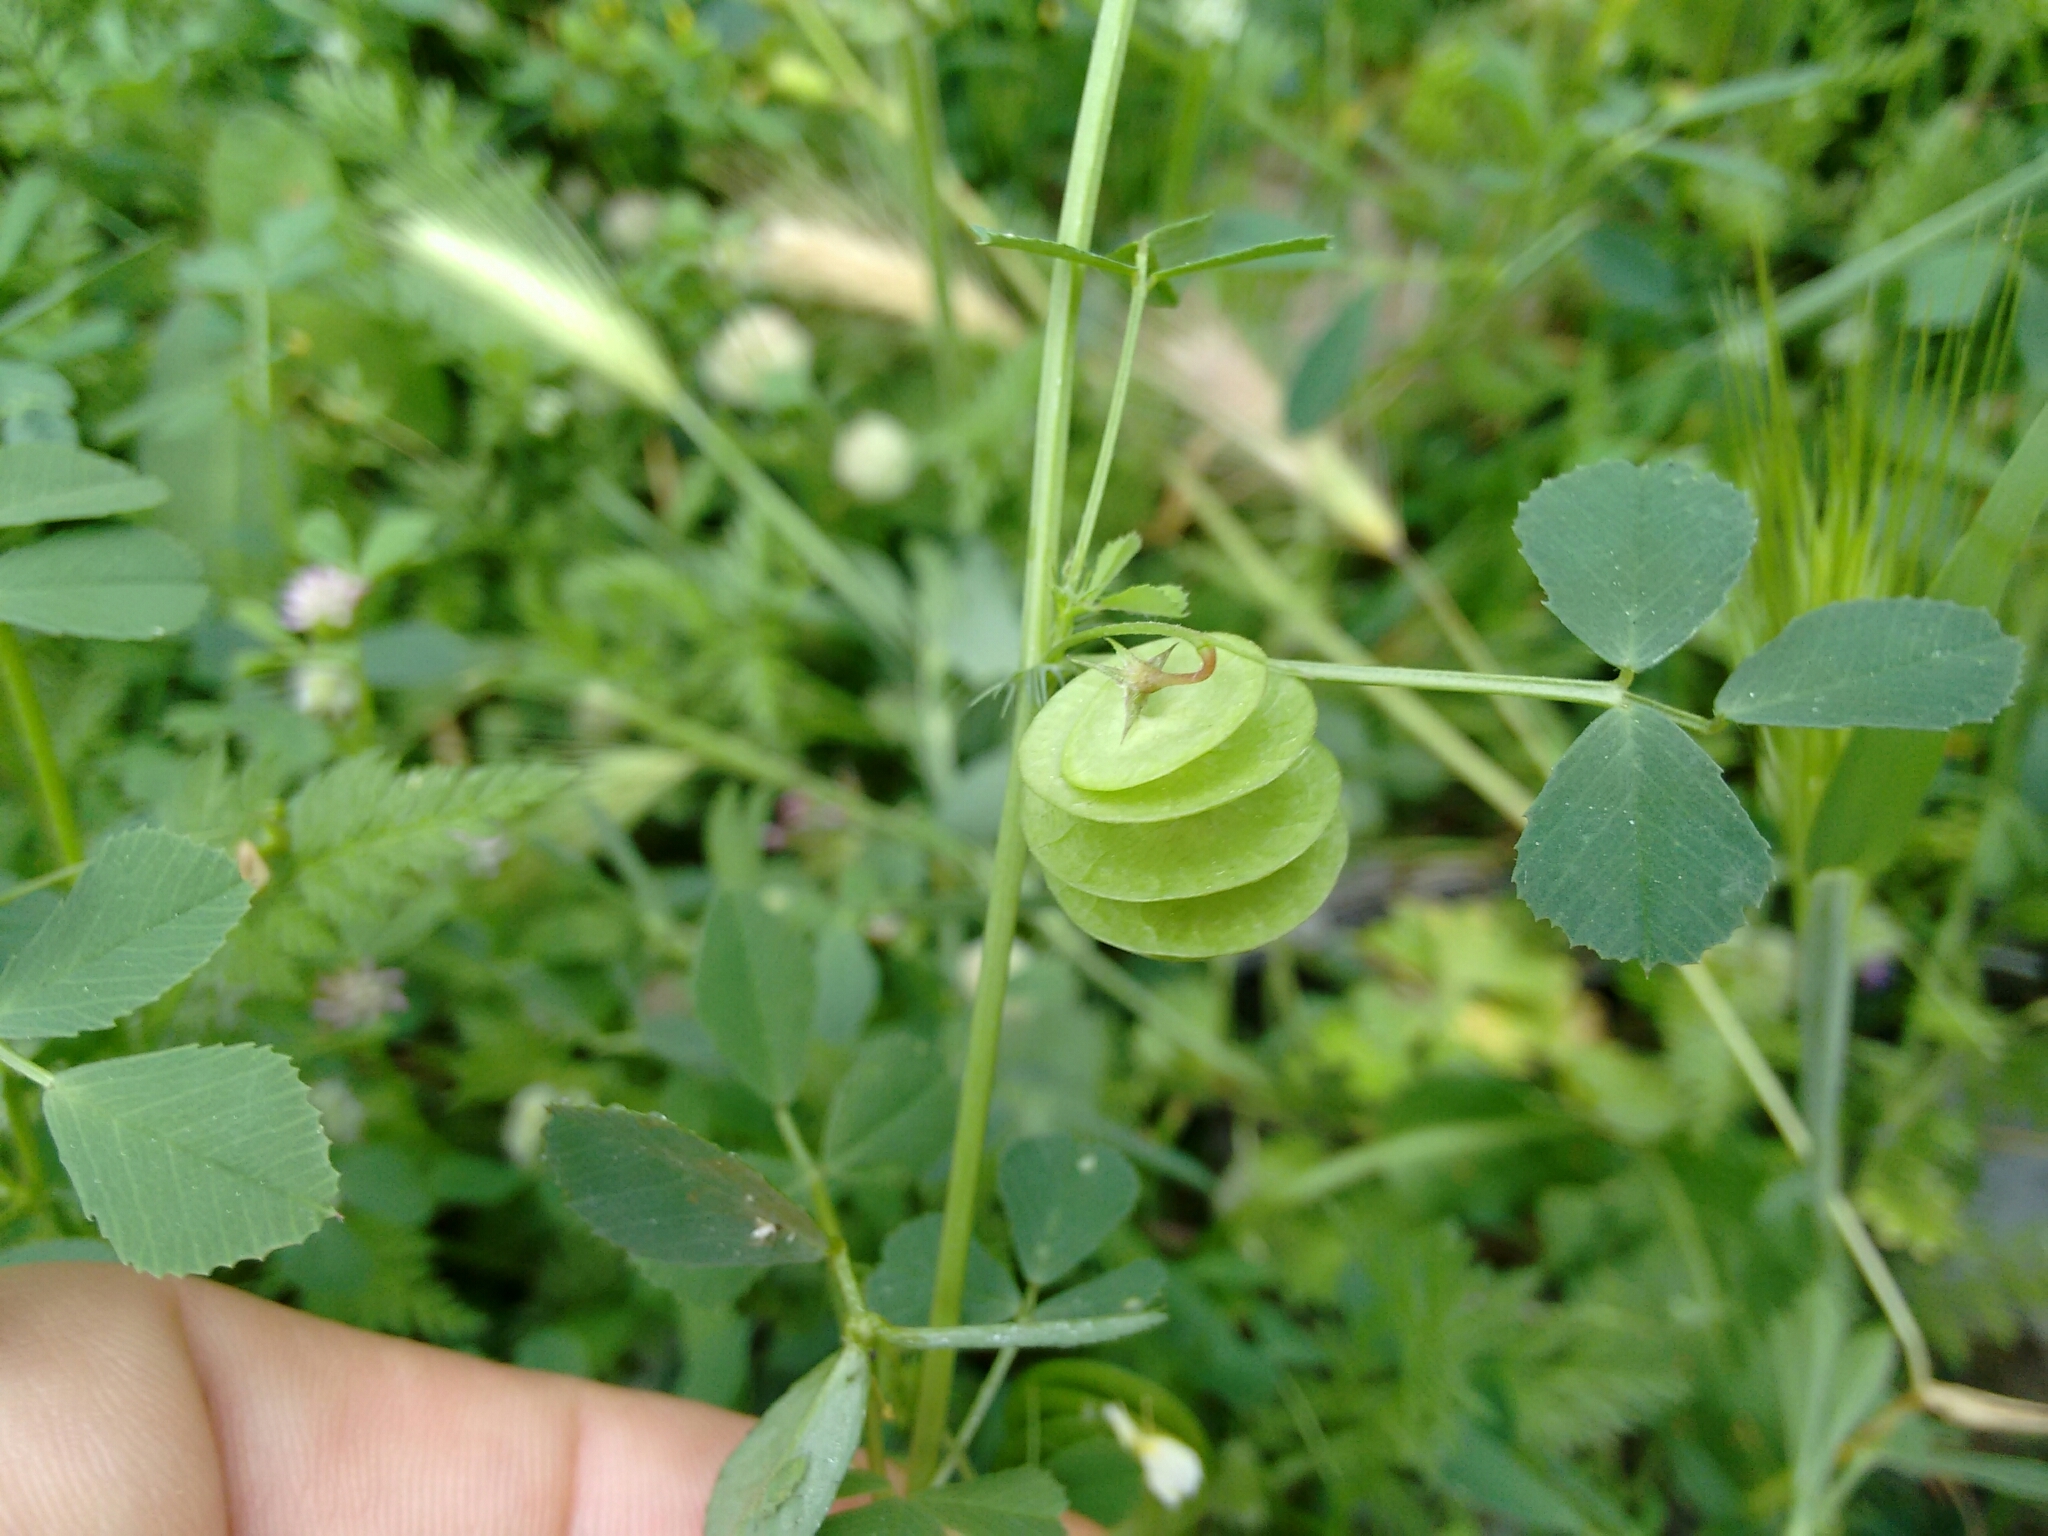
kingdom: Plantae
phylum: Tracheophyta
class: Magnoliopsida
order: Fabales
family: Fabaceae
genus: Medicago
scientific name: Medicago orbicularis
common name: Button medick
